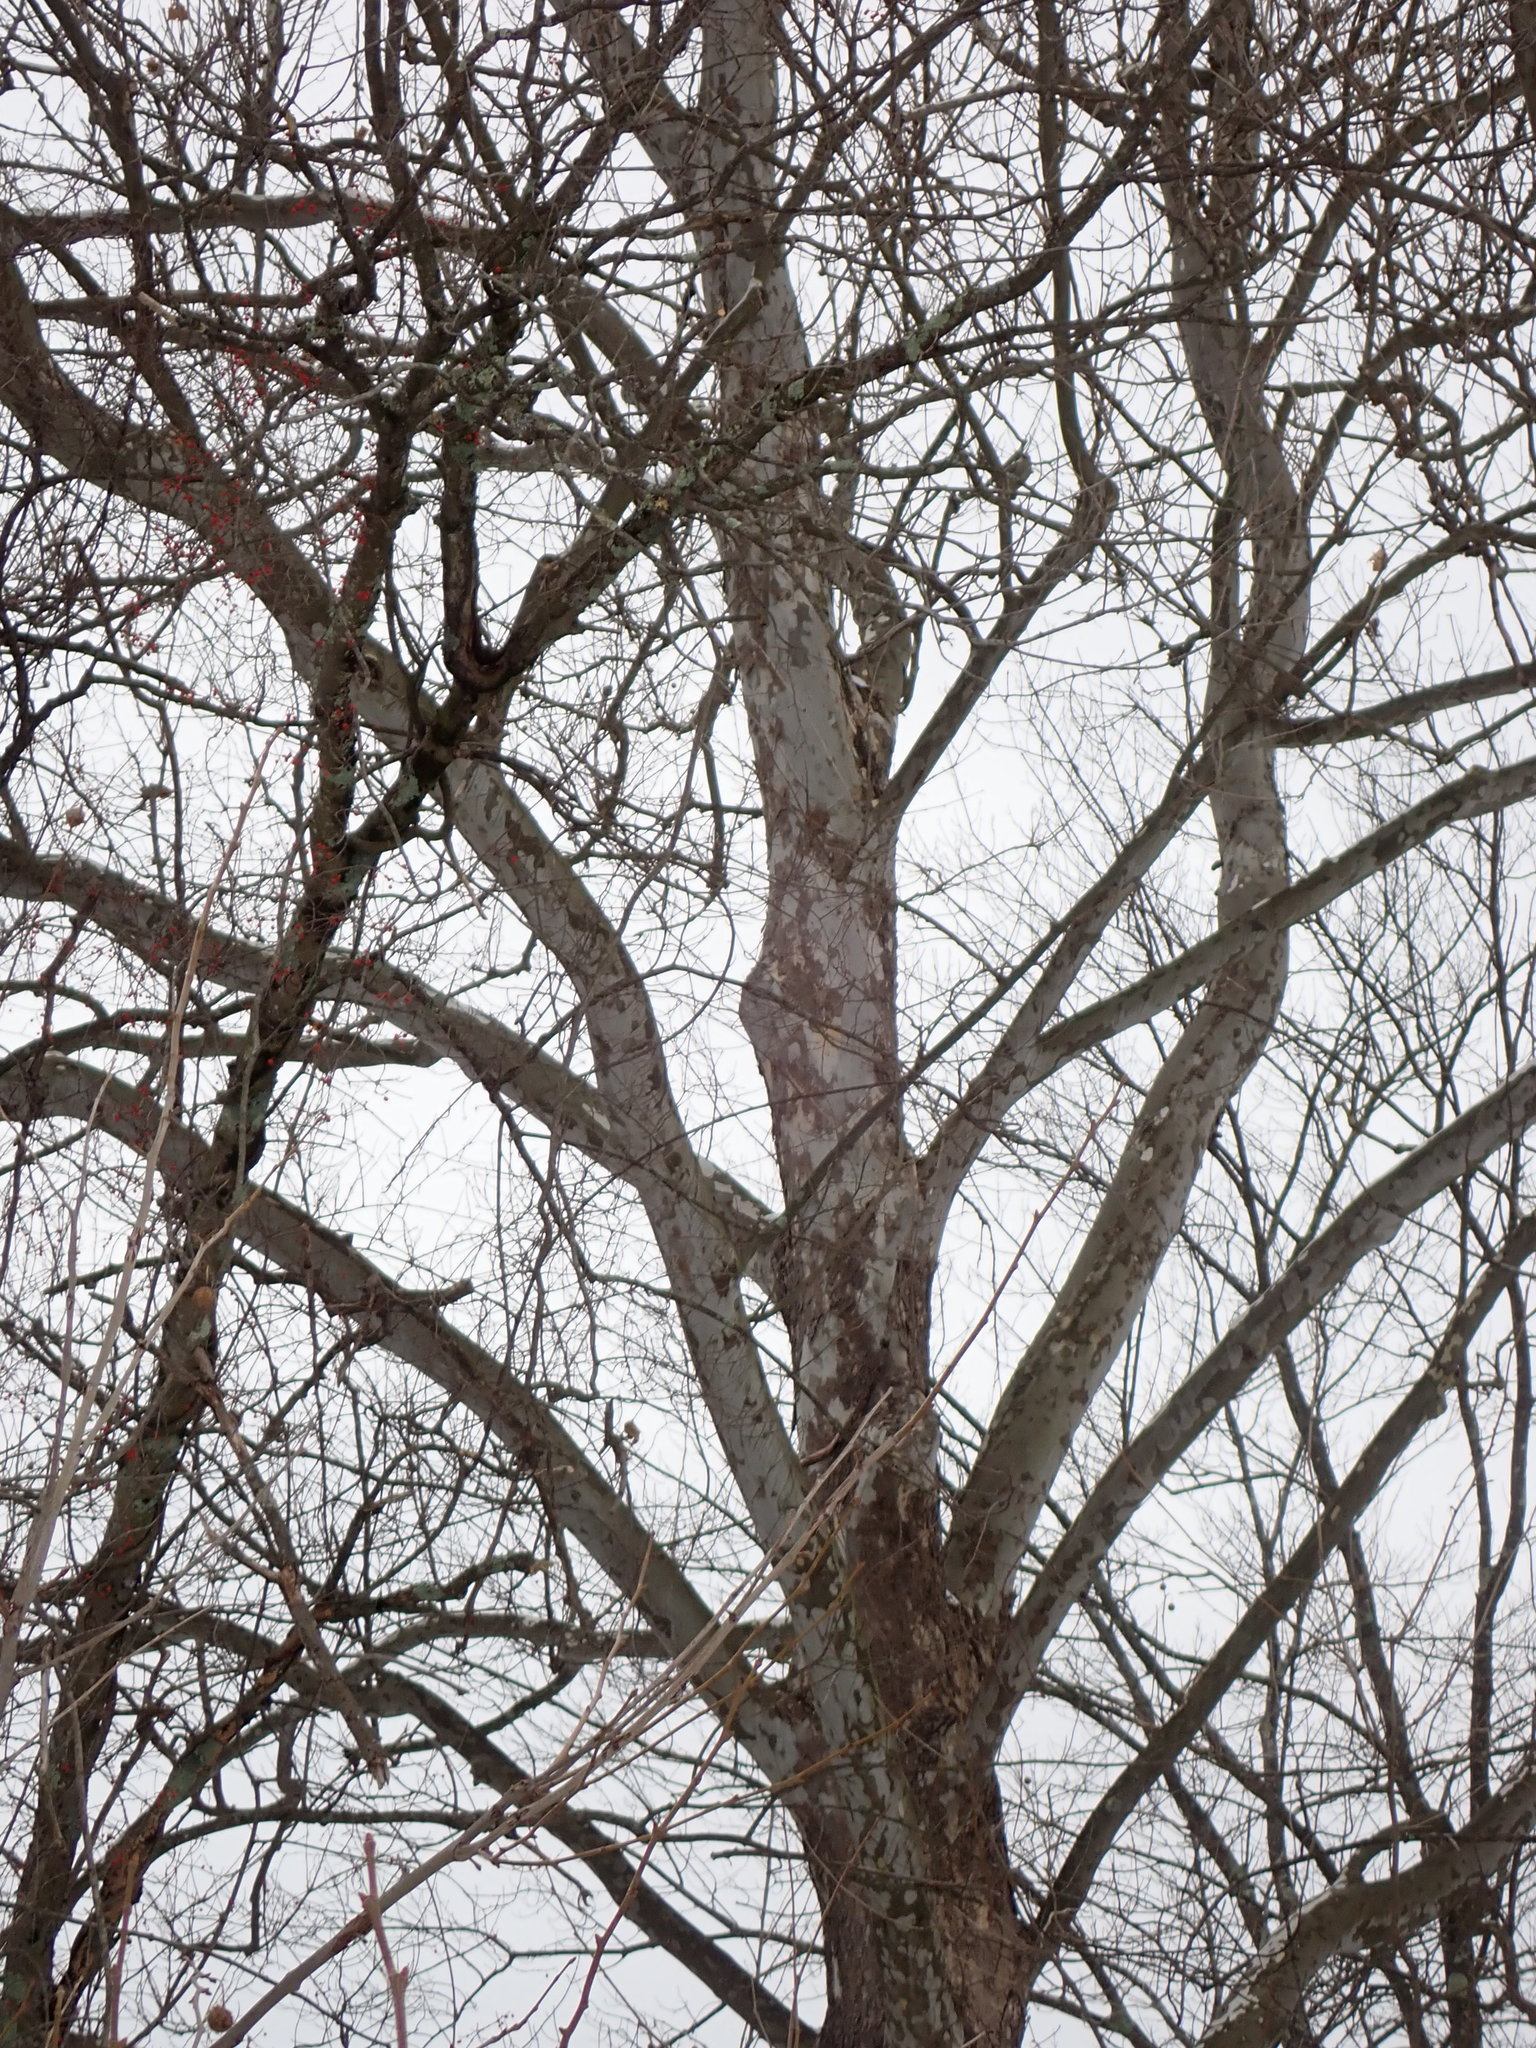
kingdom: Plantae
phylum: Tracheophyta
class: Magnoliopsida
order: Proteales
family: Platanaceae
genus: Platanus
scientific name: Platanus occidentalis
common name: American sycamore
